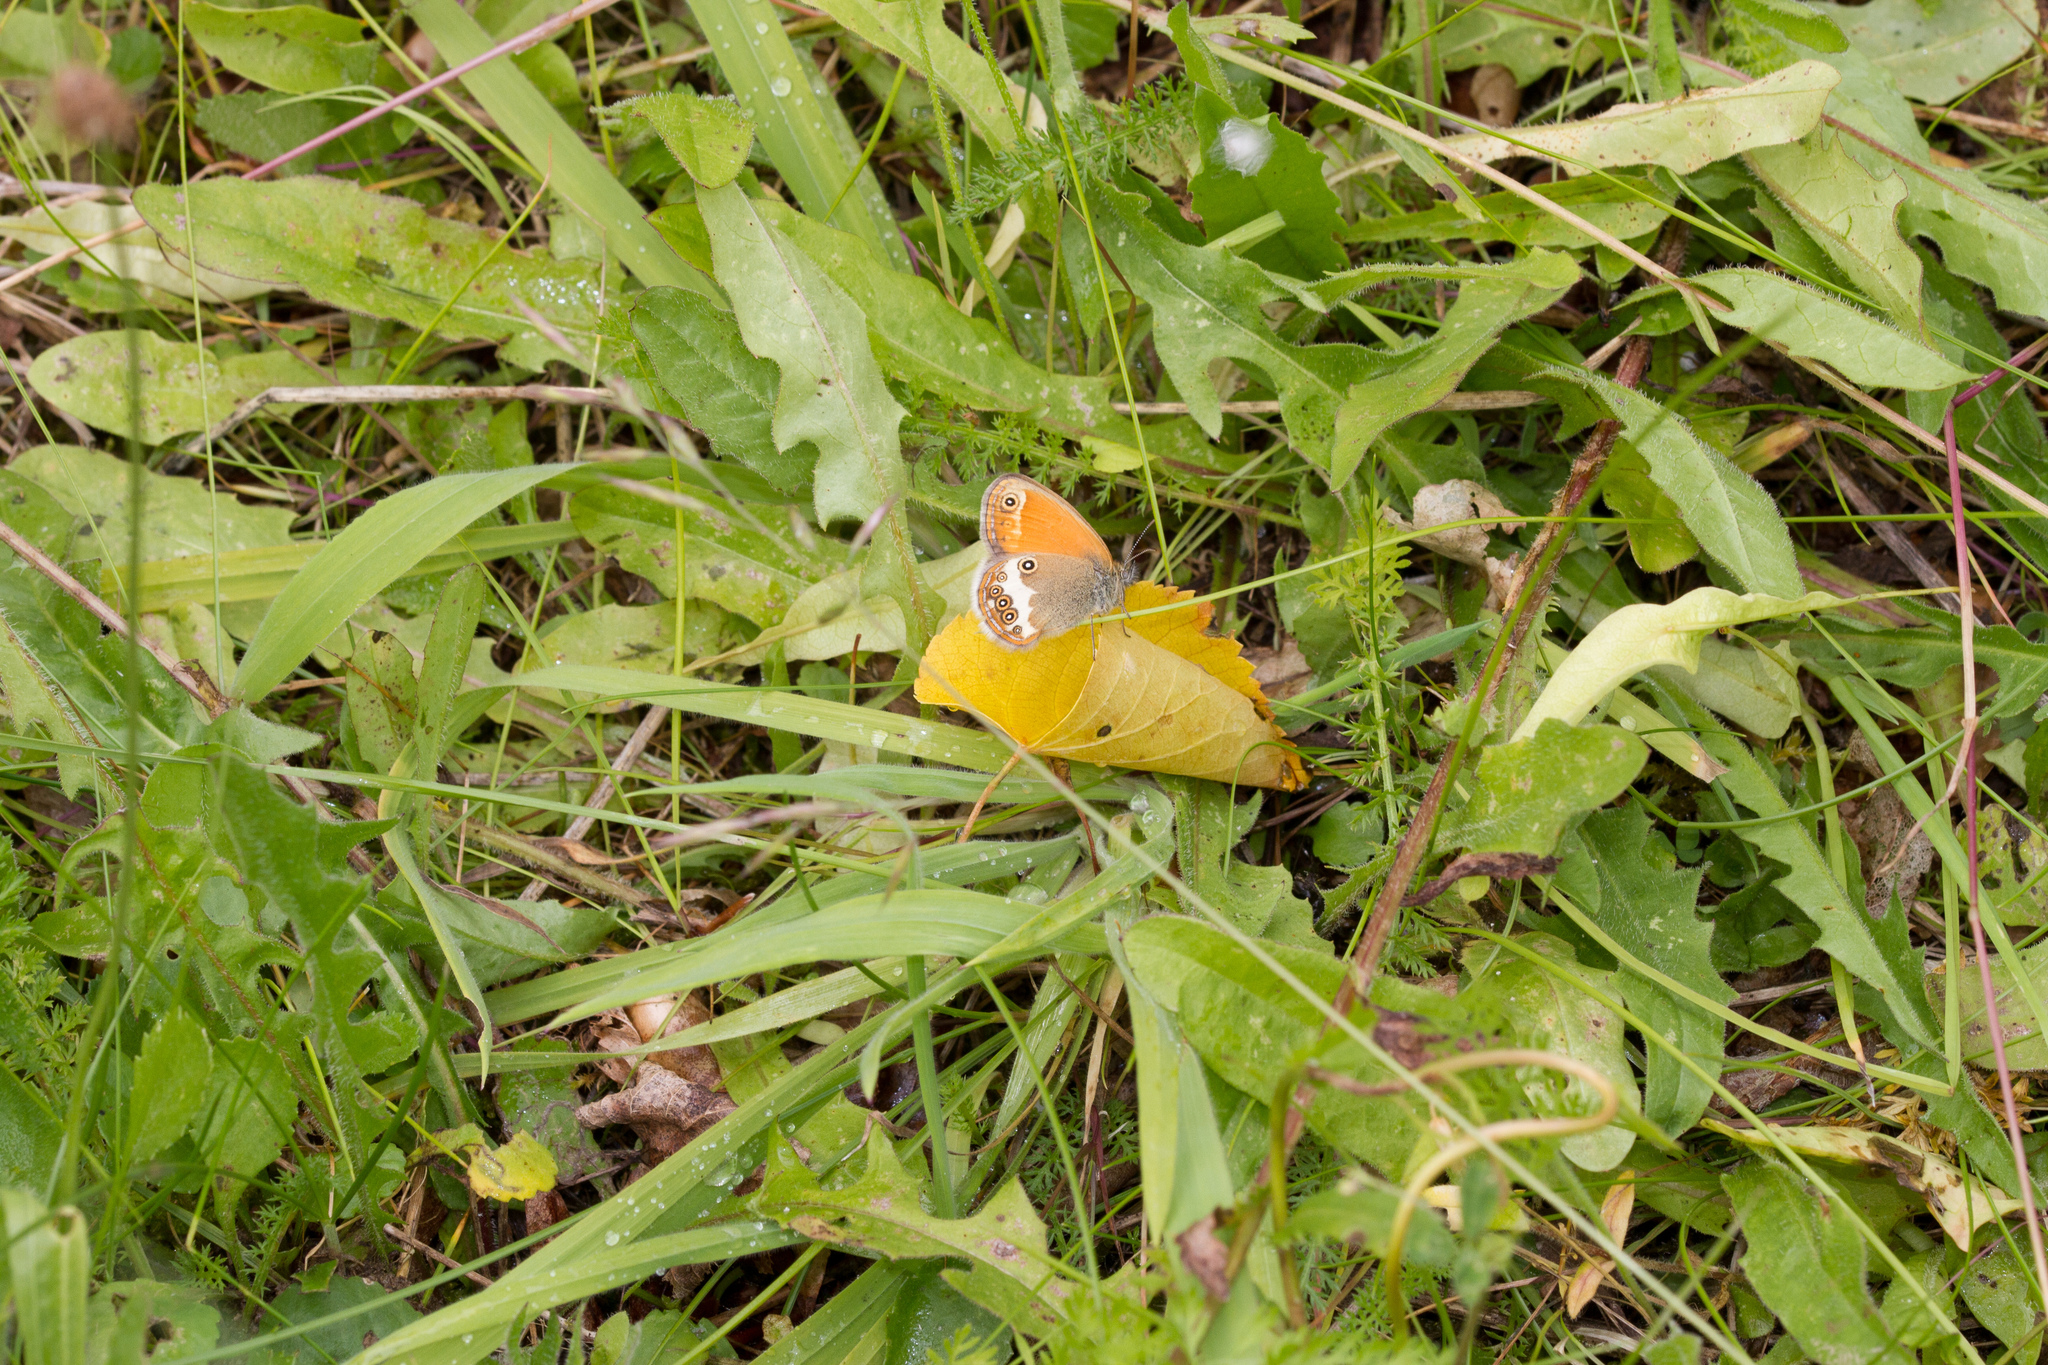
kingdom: Animalia
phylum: Arthropoda
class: Insecta
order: Lepidoptera
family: Nymphalidae
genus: Coenonympha
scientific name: Coenonympha arcania
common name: Pearly heath
